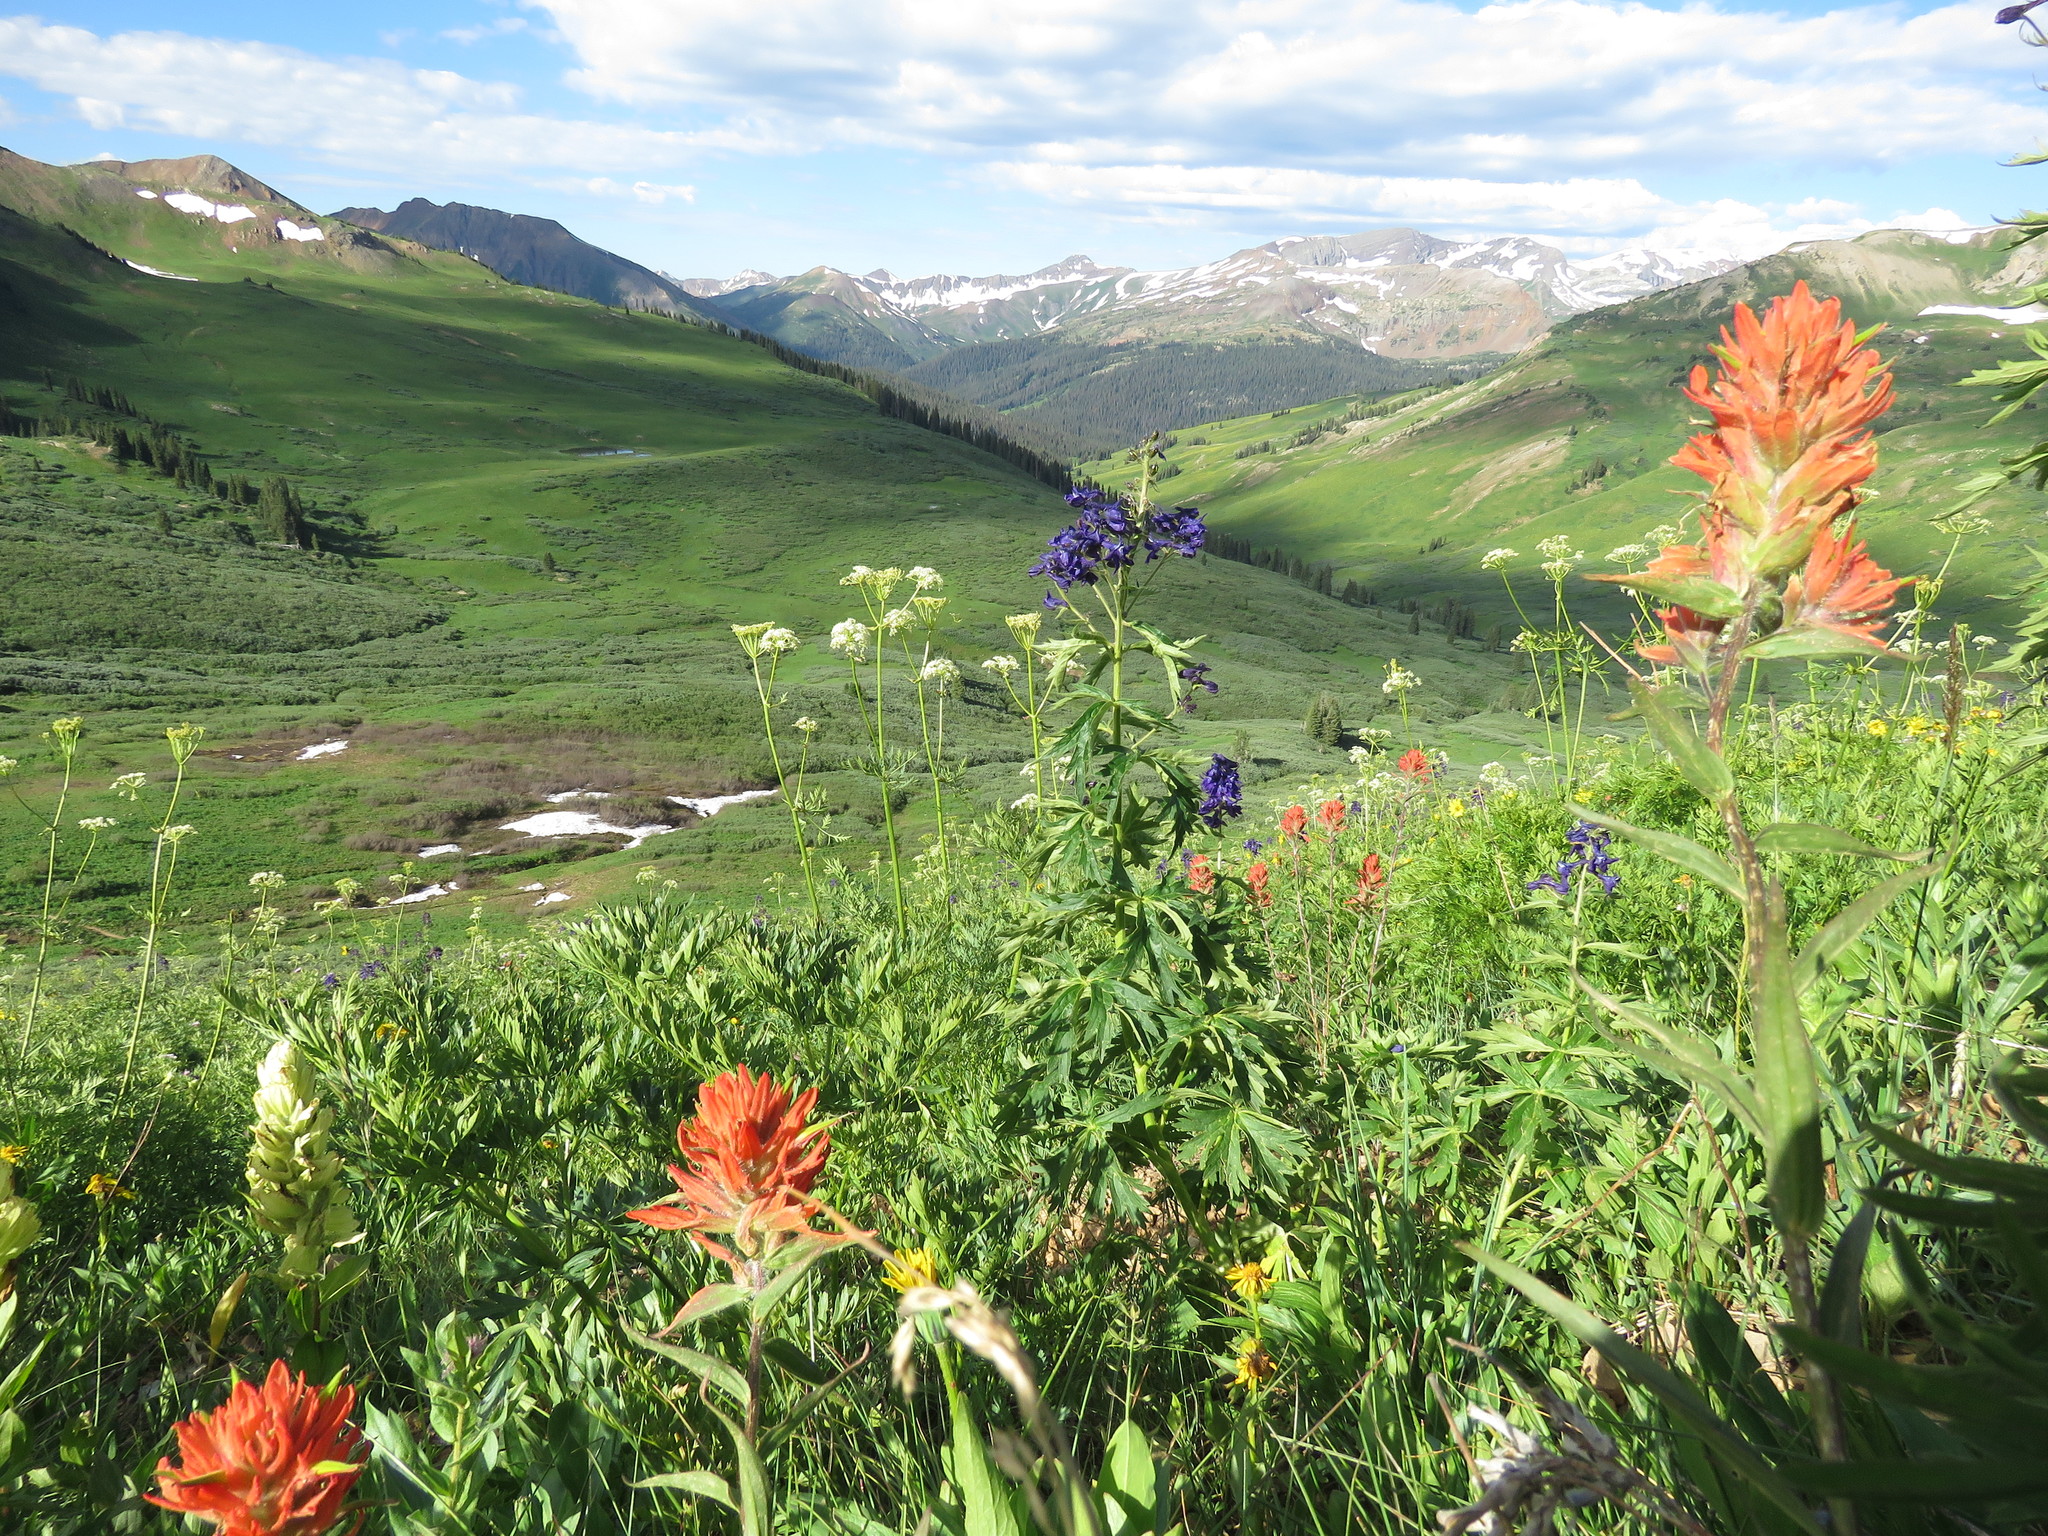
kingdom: Plantae
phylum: Tracheophyta
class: Magnoliopsida
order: Lamiales
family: Orobanchaceae
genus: Castilleja
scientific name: Castilleja miniata
